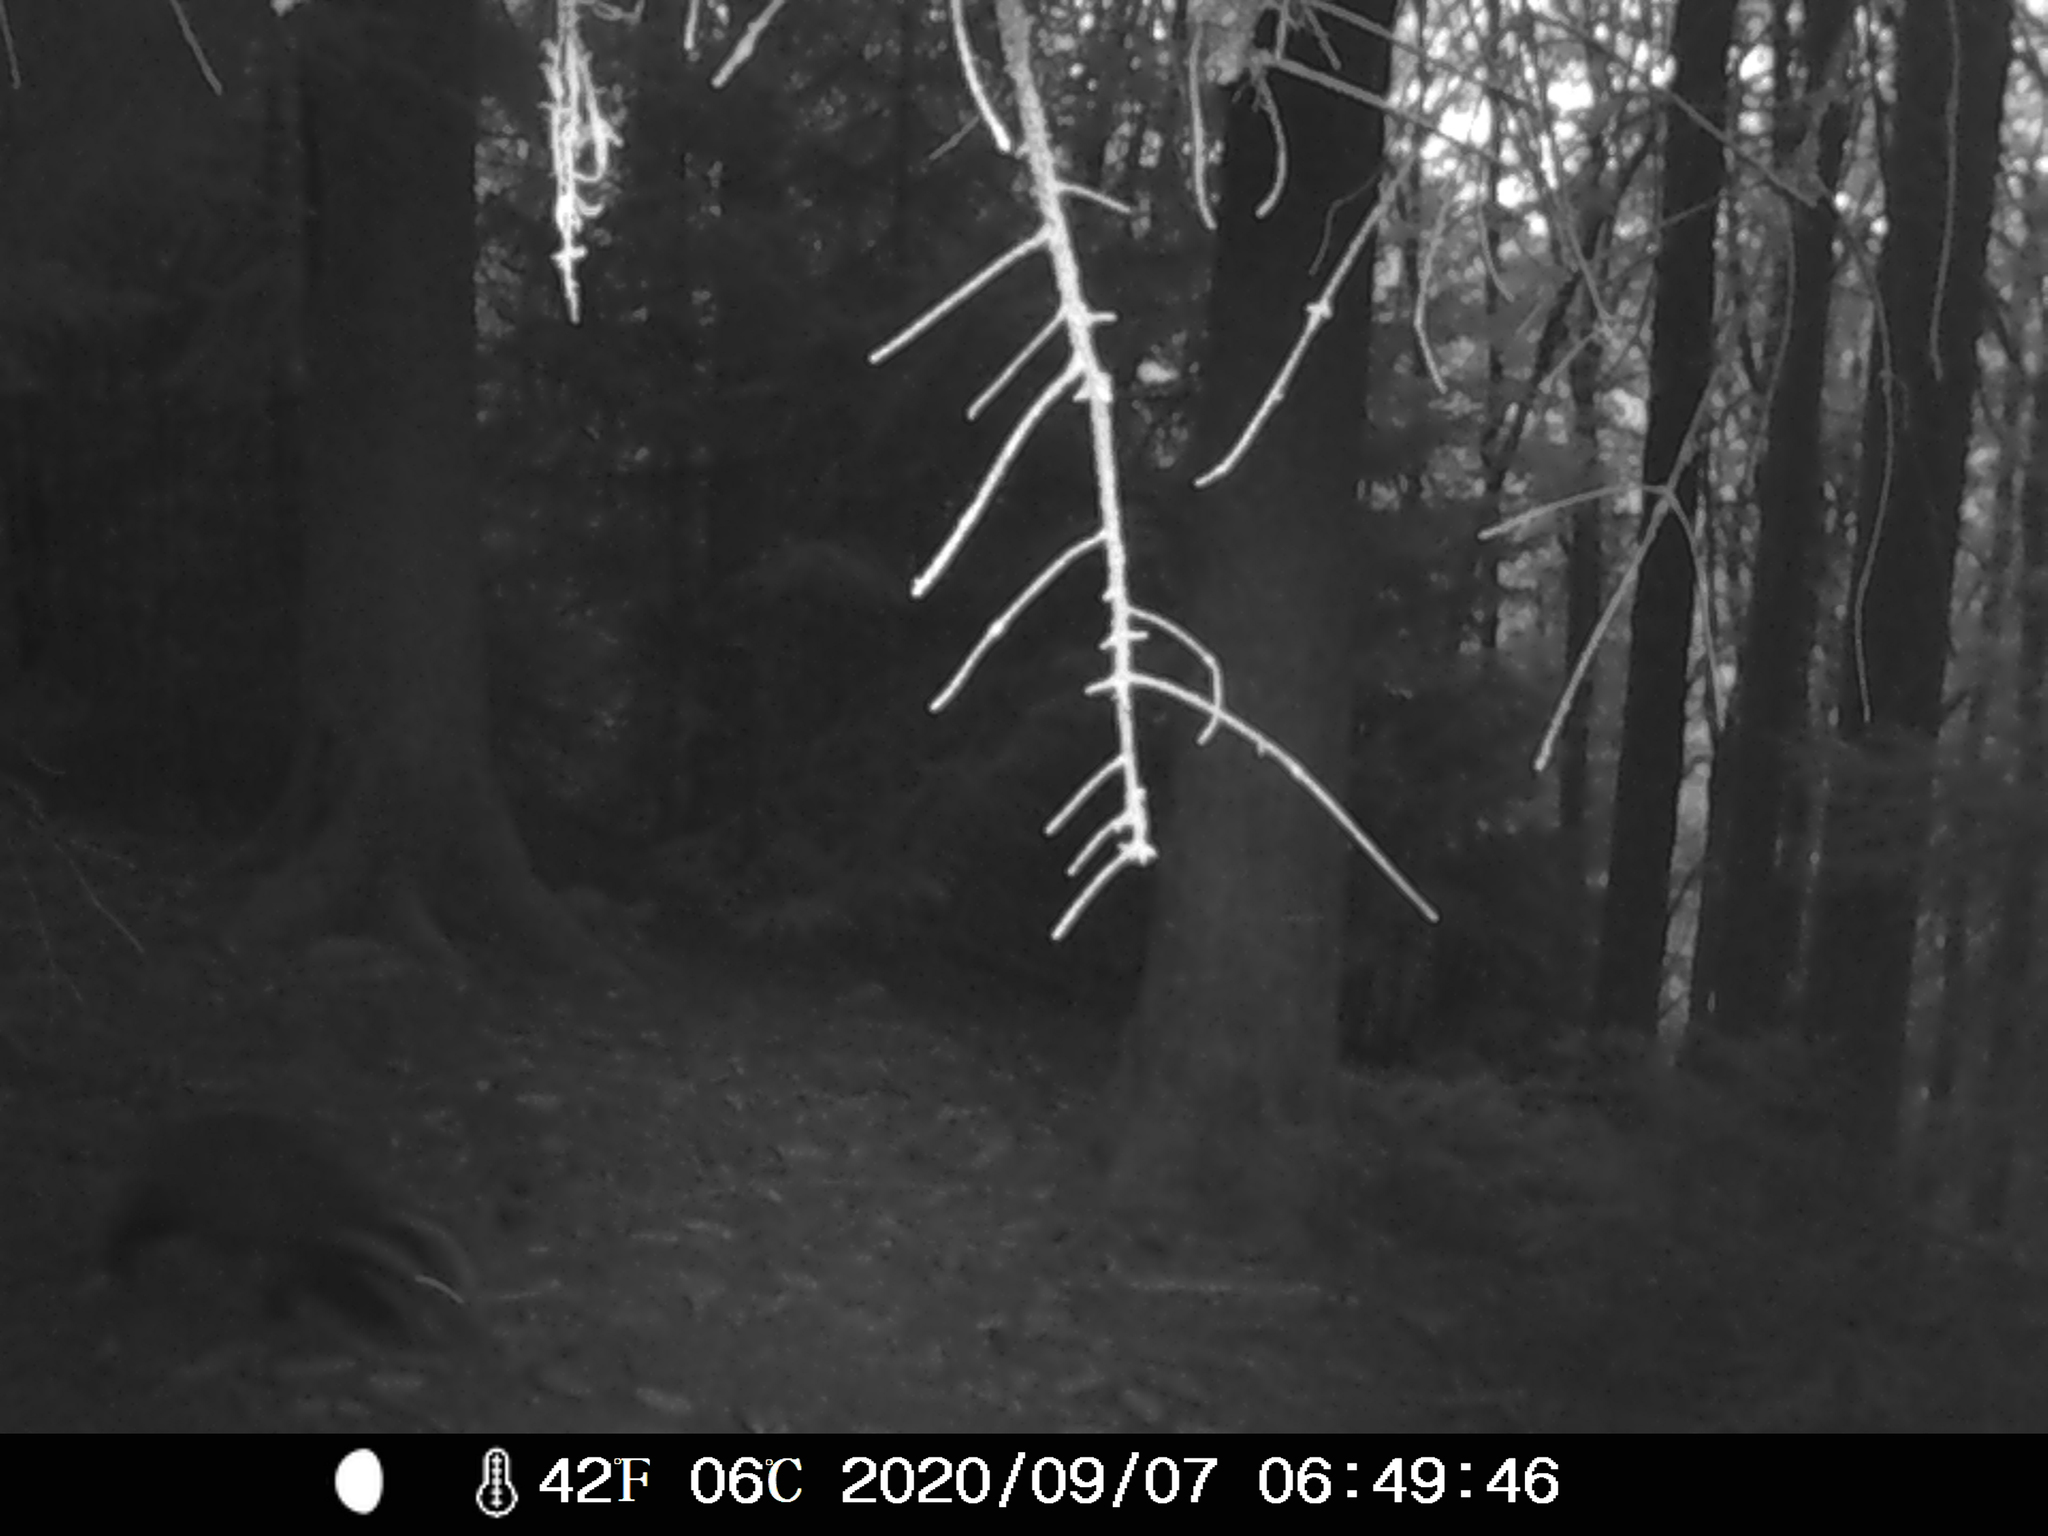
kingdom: Animalia
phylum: Chordata
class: Mammalia
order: Carnivora
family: Mustelidae
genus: Meles
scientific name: Meles meles
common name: Eurasian badger
